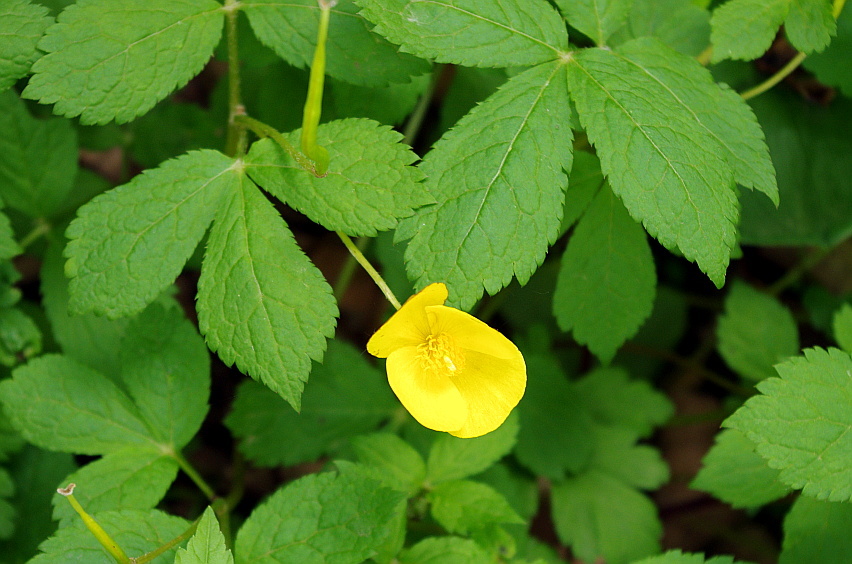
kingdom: Plantae
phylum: Tracheophyta
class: Magnoliopsida
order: Ranunculales
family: Papaveraceae
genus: Hylomecon
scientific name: Hylomecon vernalis
